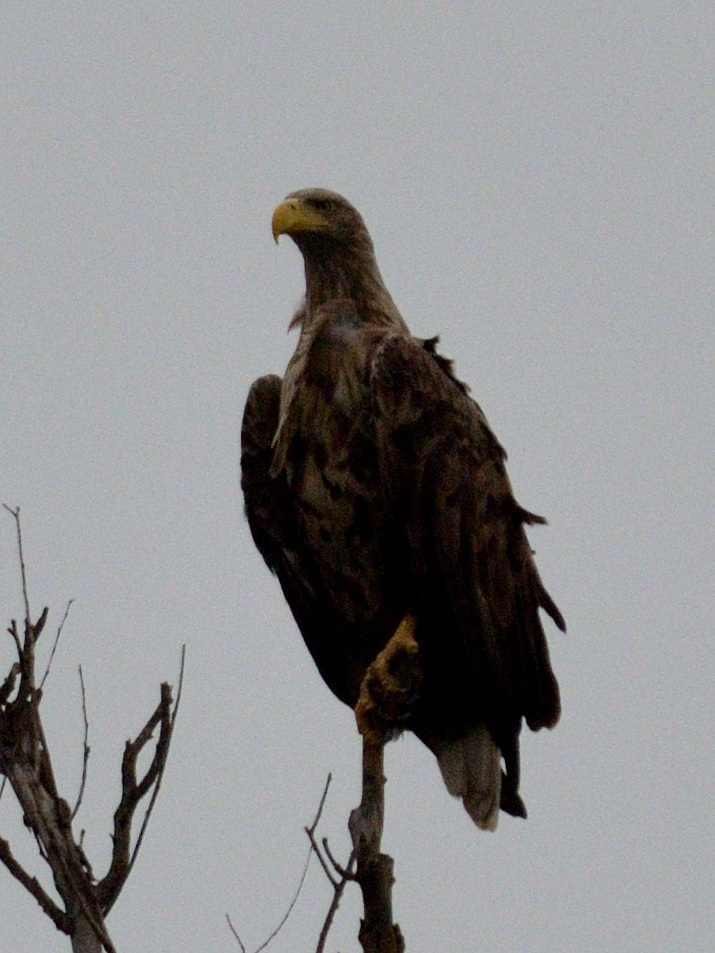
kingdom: Animalia
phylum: Chordata
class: Aves
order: Accipitriformes
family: Accipitridae
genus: Haliaeetus
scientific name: Haliaeetus albicilla
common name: White-tailed eagle
